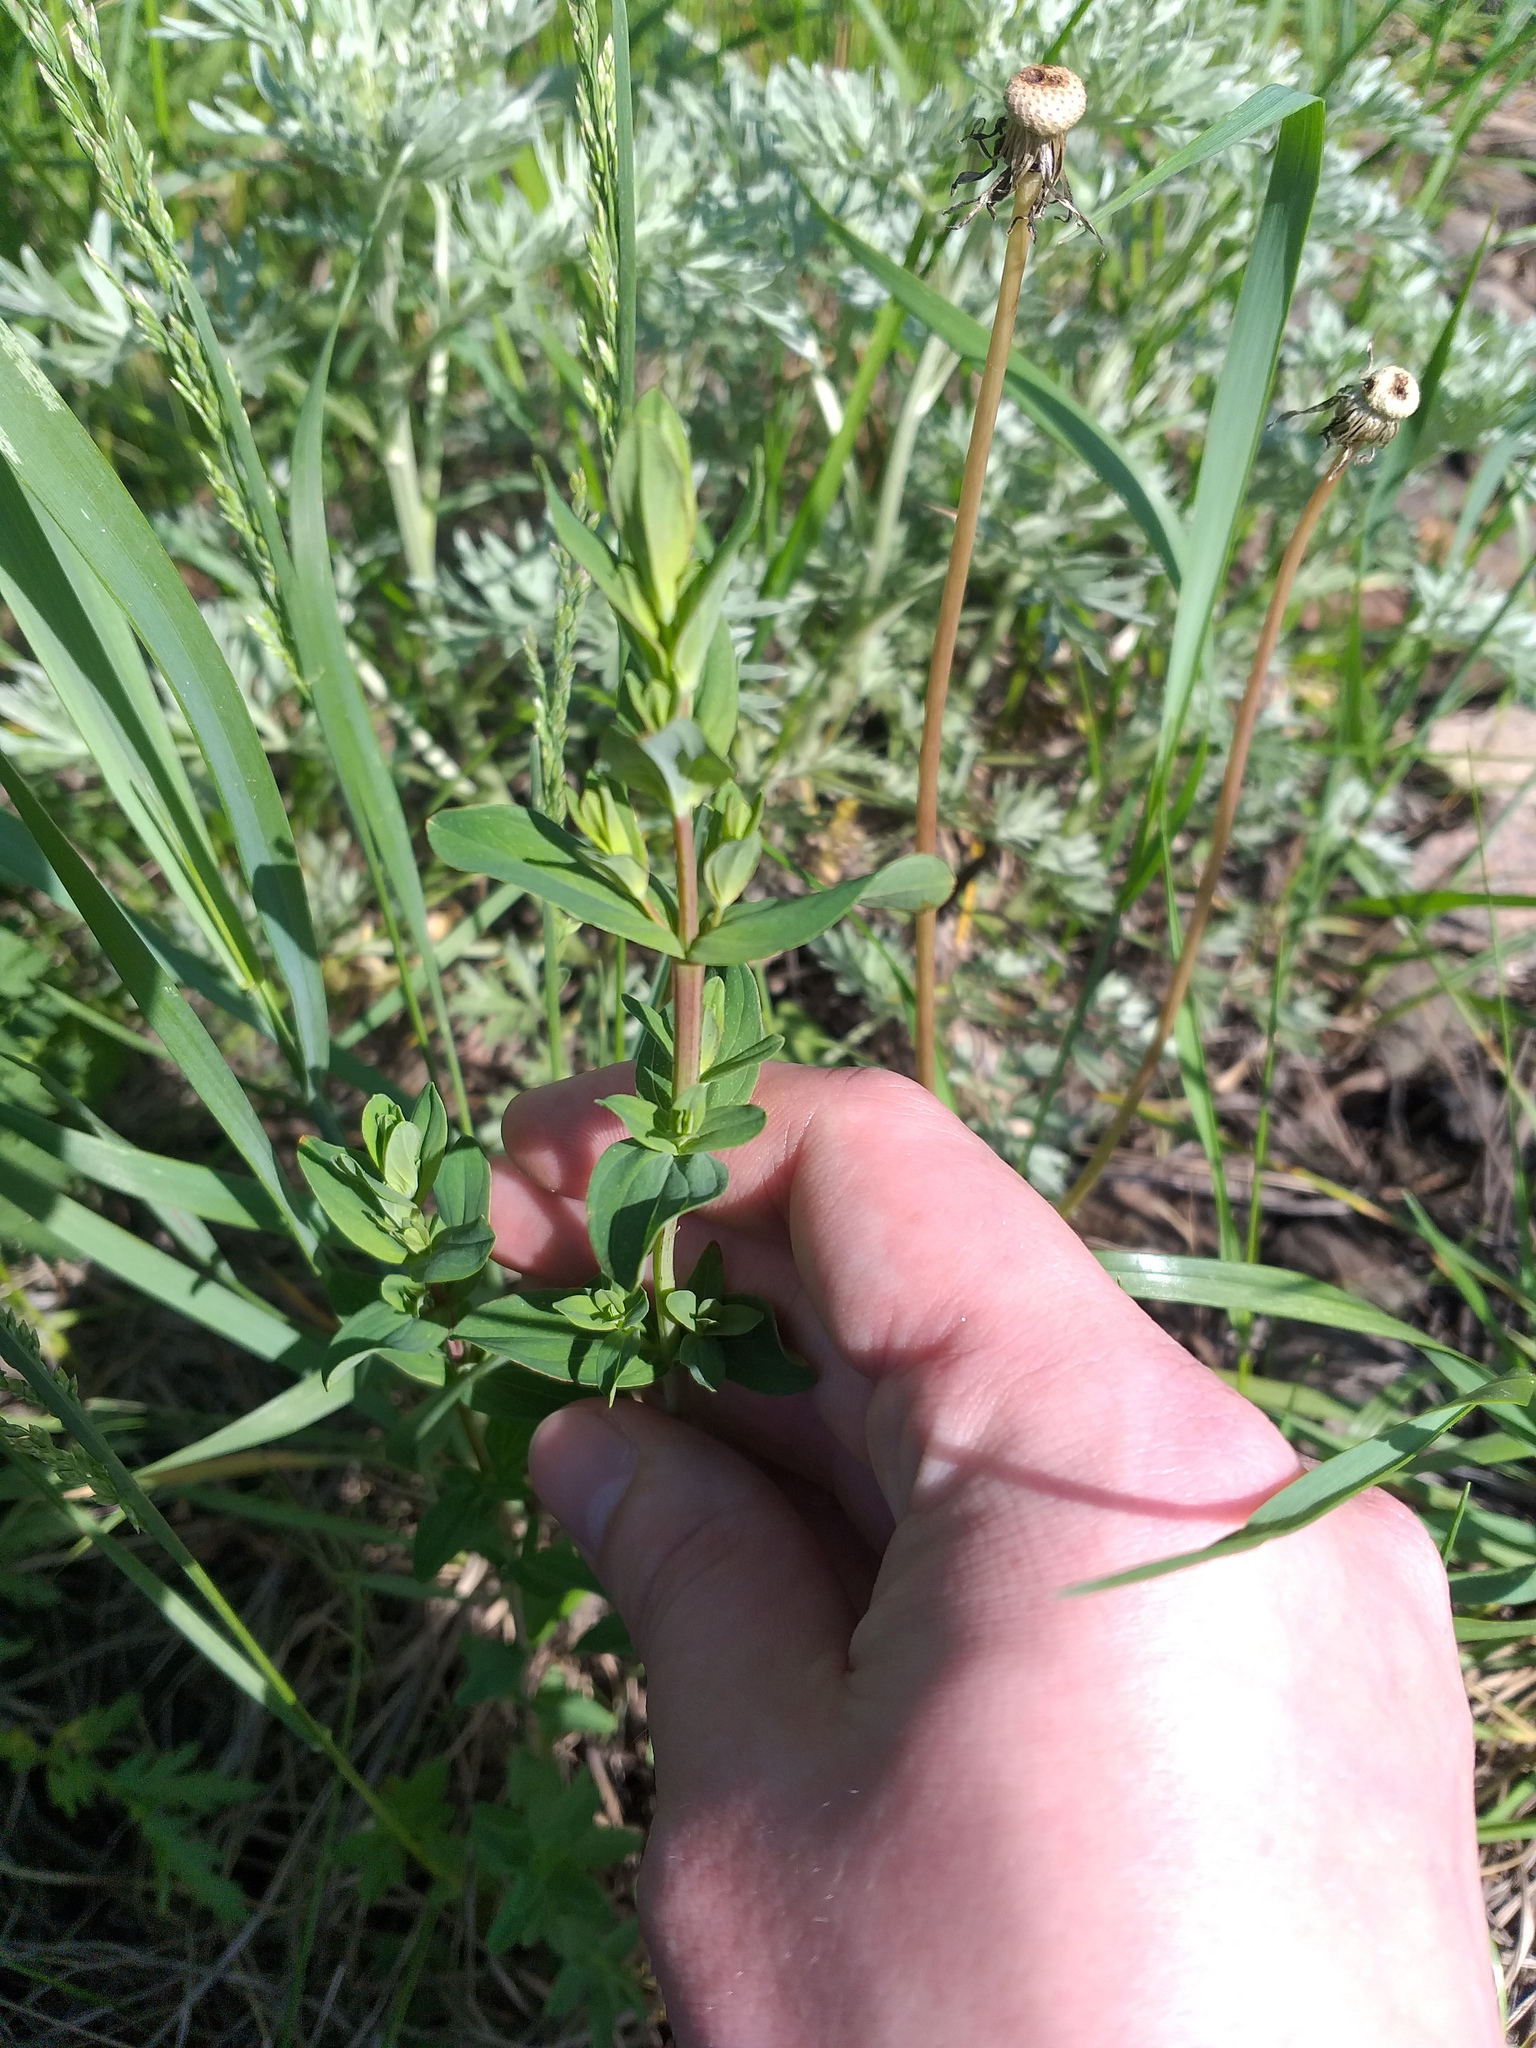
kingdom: Plantae
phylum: Tracheophyta
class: Magnoliopsida
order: Malpighiales
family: Hypericaceae
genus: Hypericum
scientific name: Hypericum perforatum
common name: Common st. johnswort
